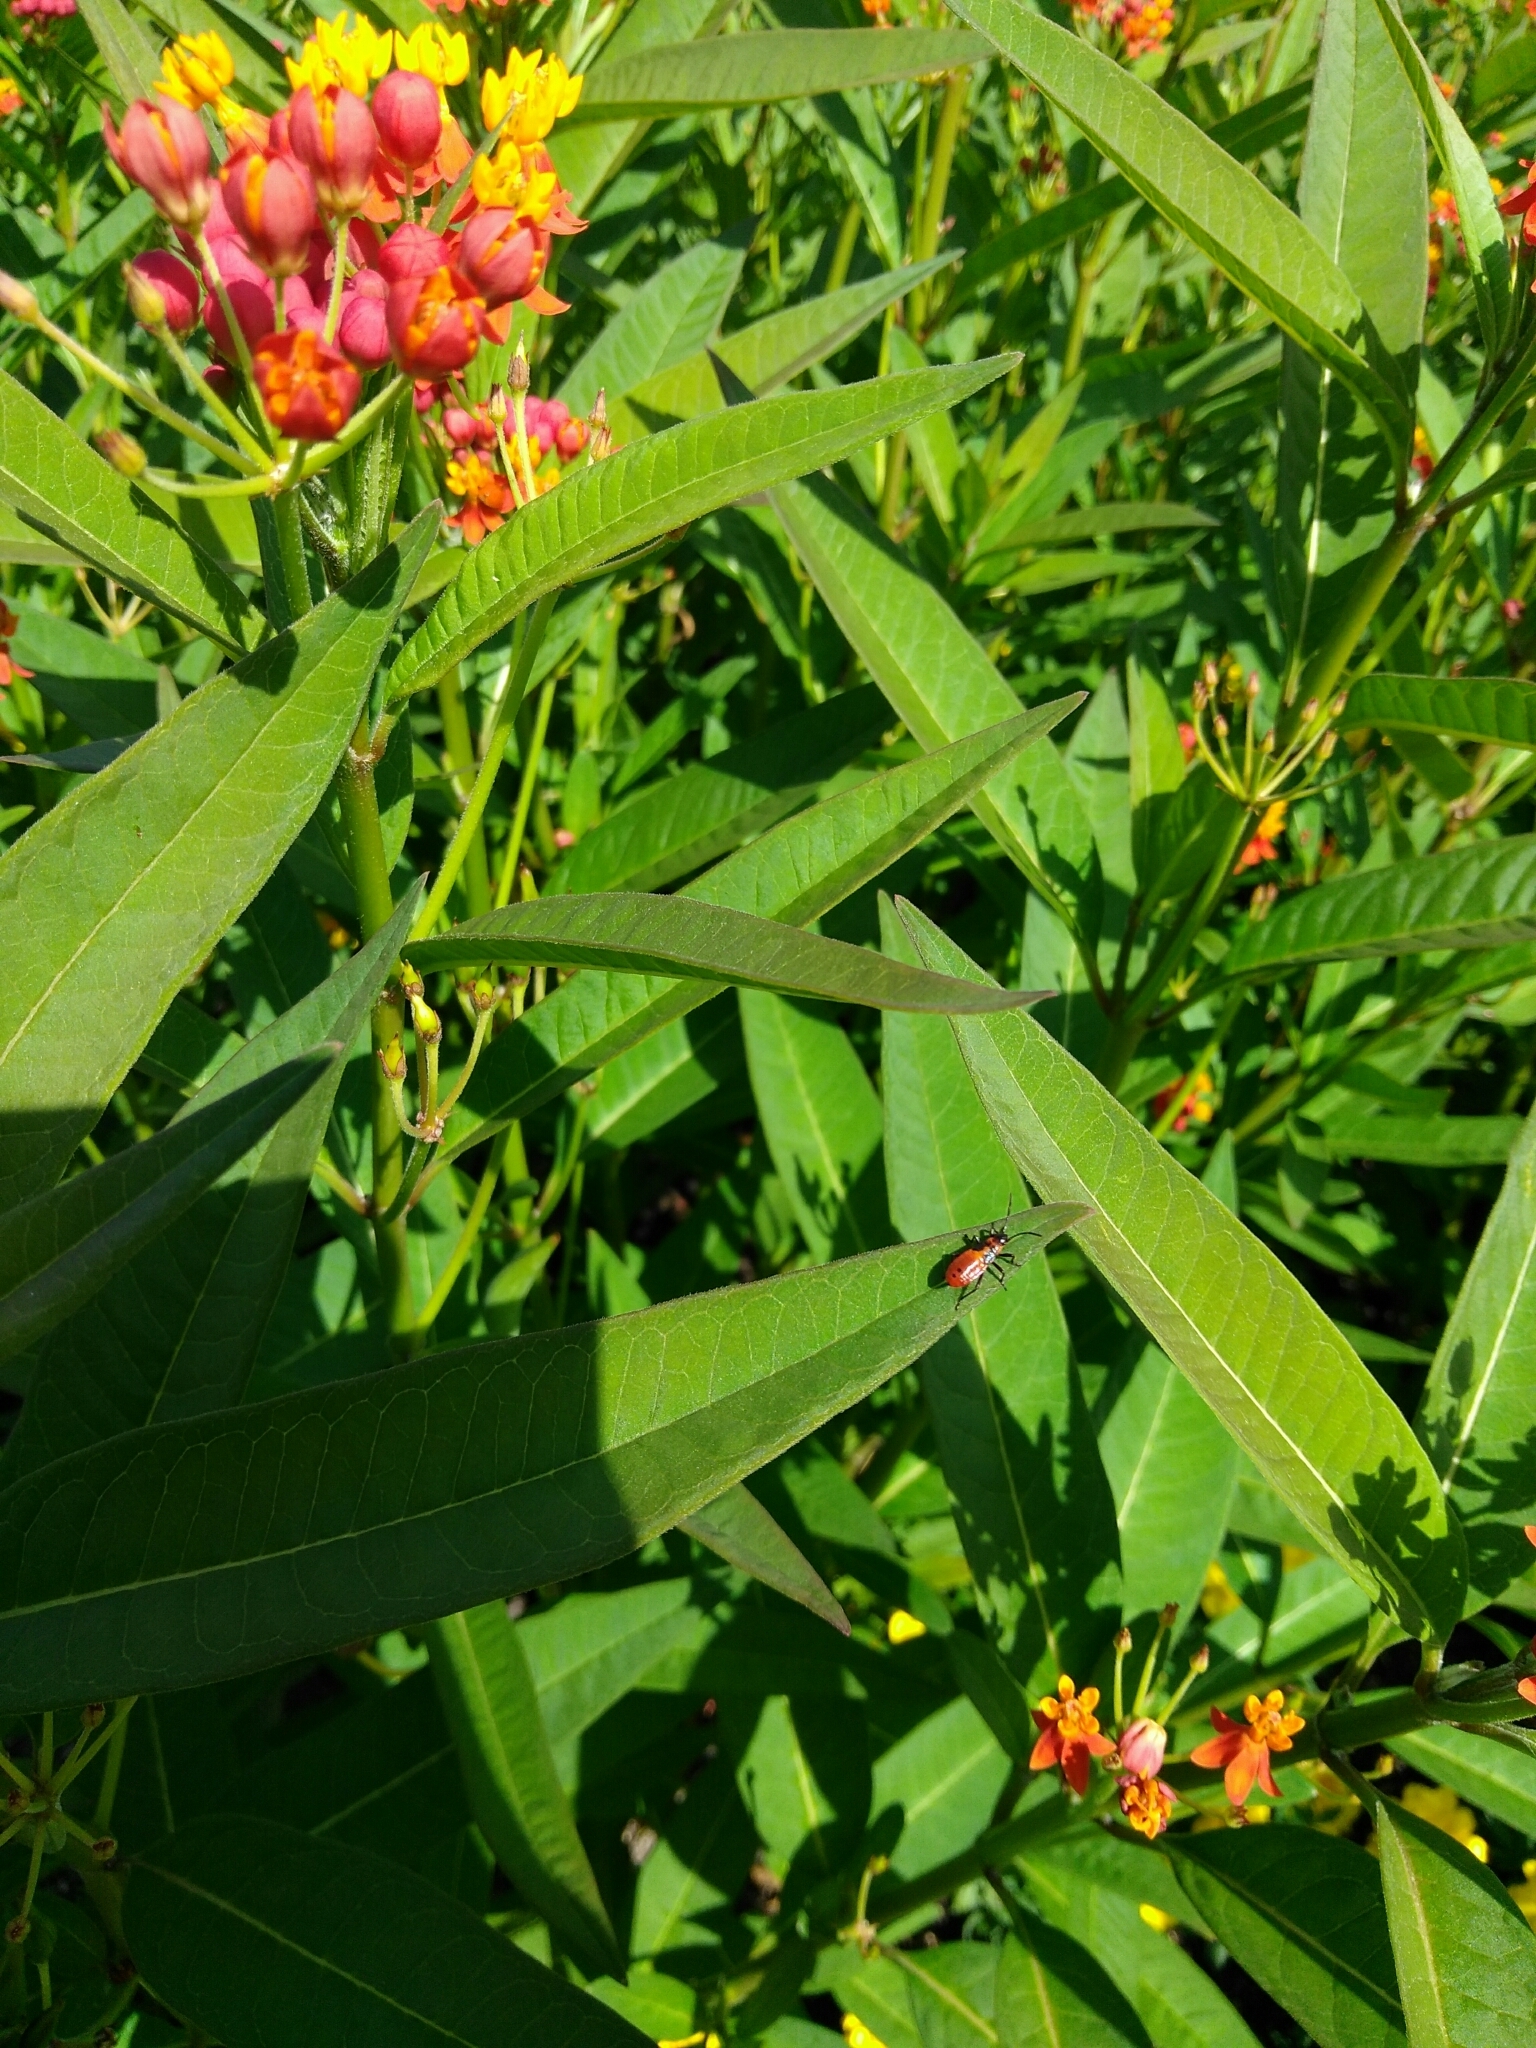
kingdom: Animalia
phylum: Arthropoda
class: Insecta
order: Hemiptera
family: Lygaeidae
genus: Oncopeltus
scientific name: Oncopeltus fasciatus
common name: Large milkweed bug
